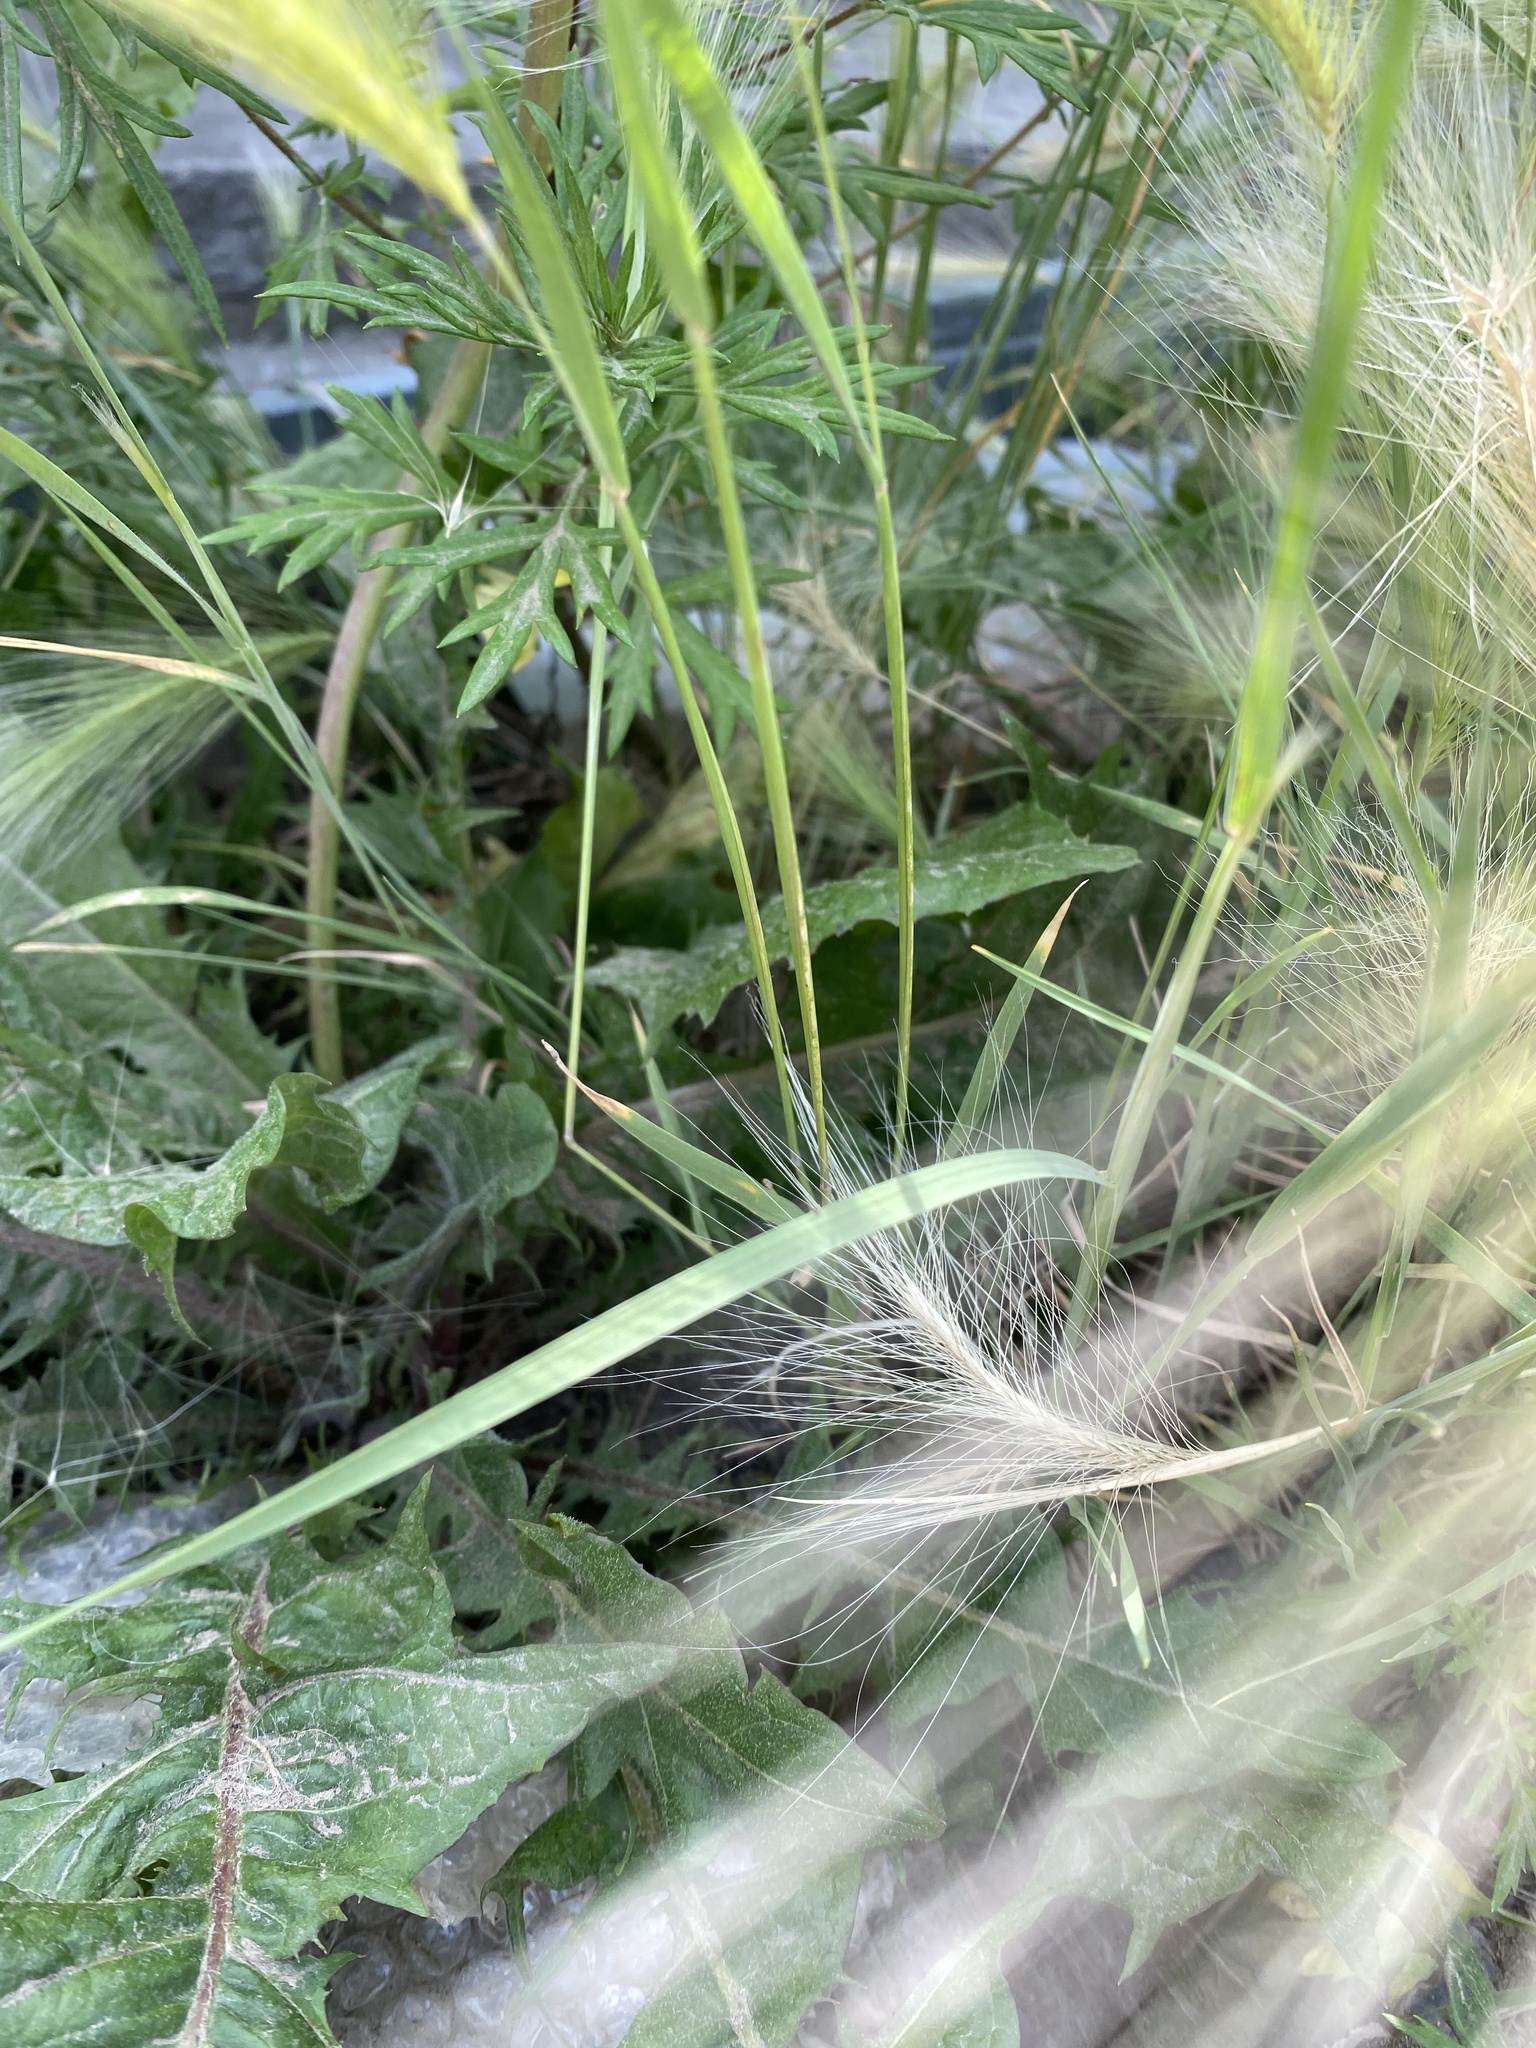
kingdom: Plantae
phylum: Tracheophyta
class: Liliopsida
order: Poales
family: Poaceae
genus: Hordeum
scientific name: Hordeum jubatum
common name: Foxtail barley
